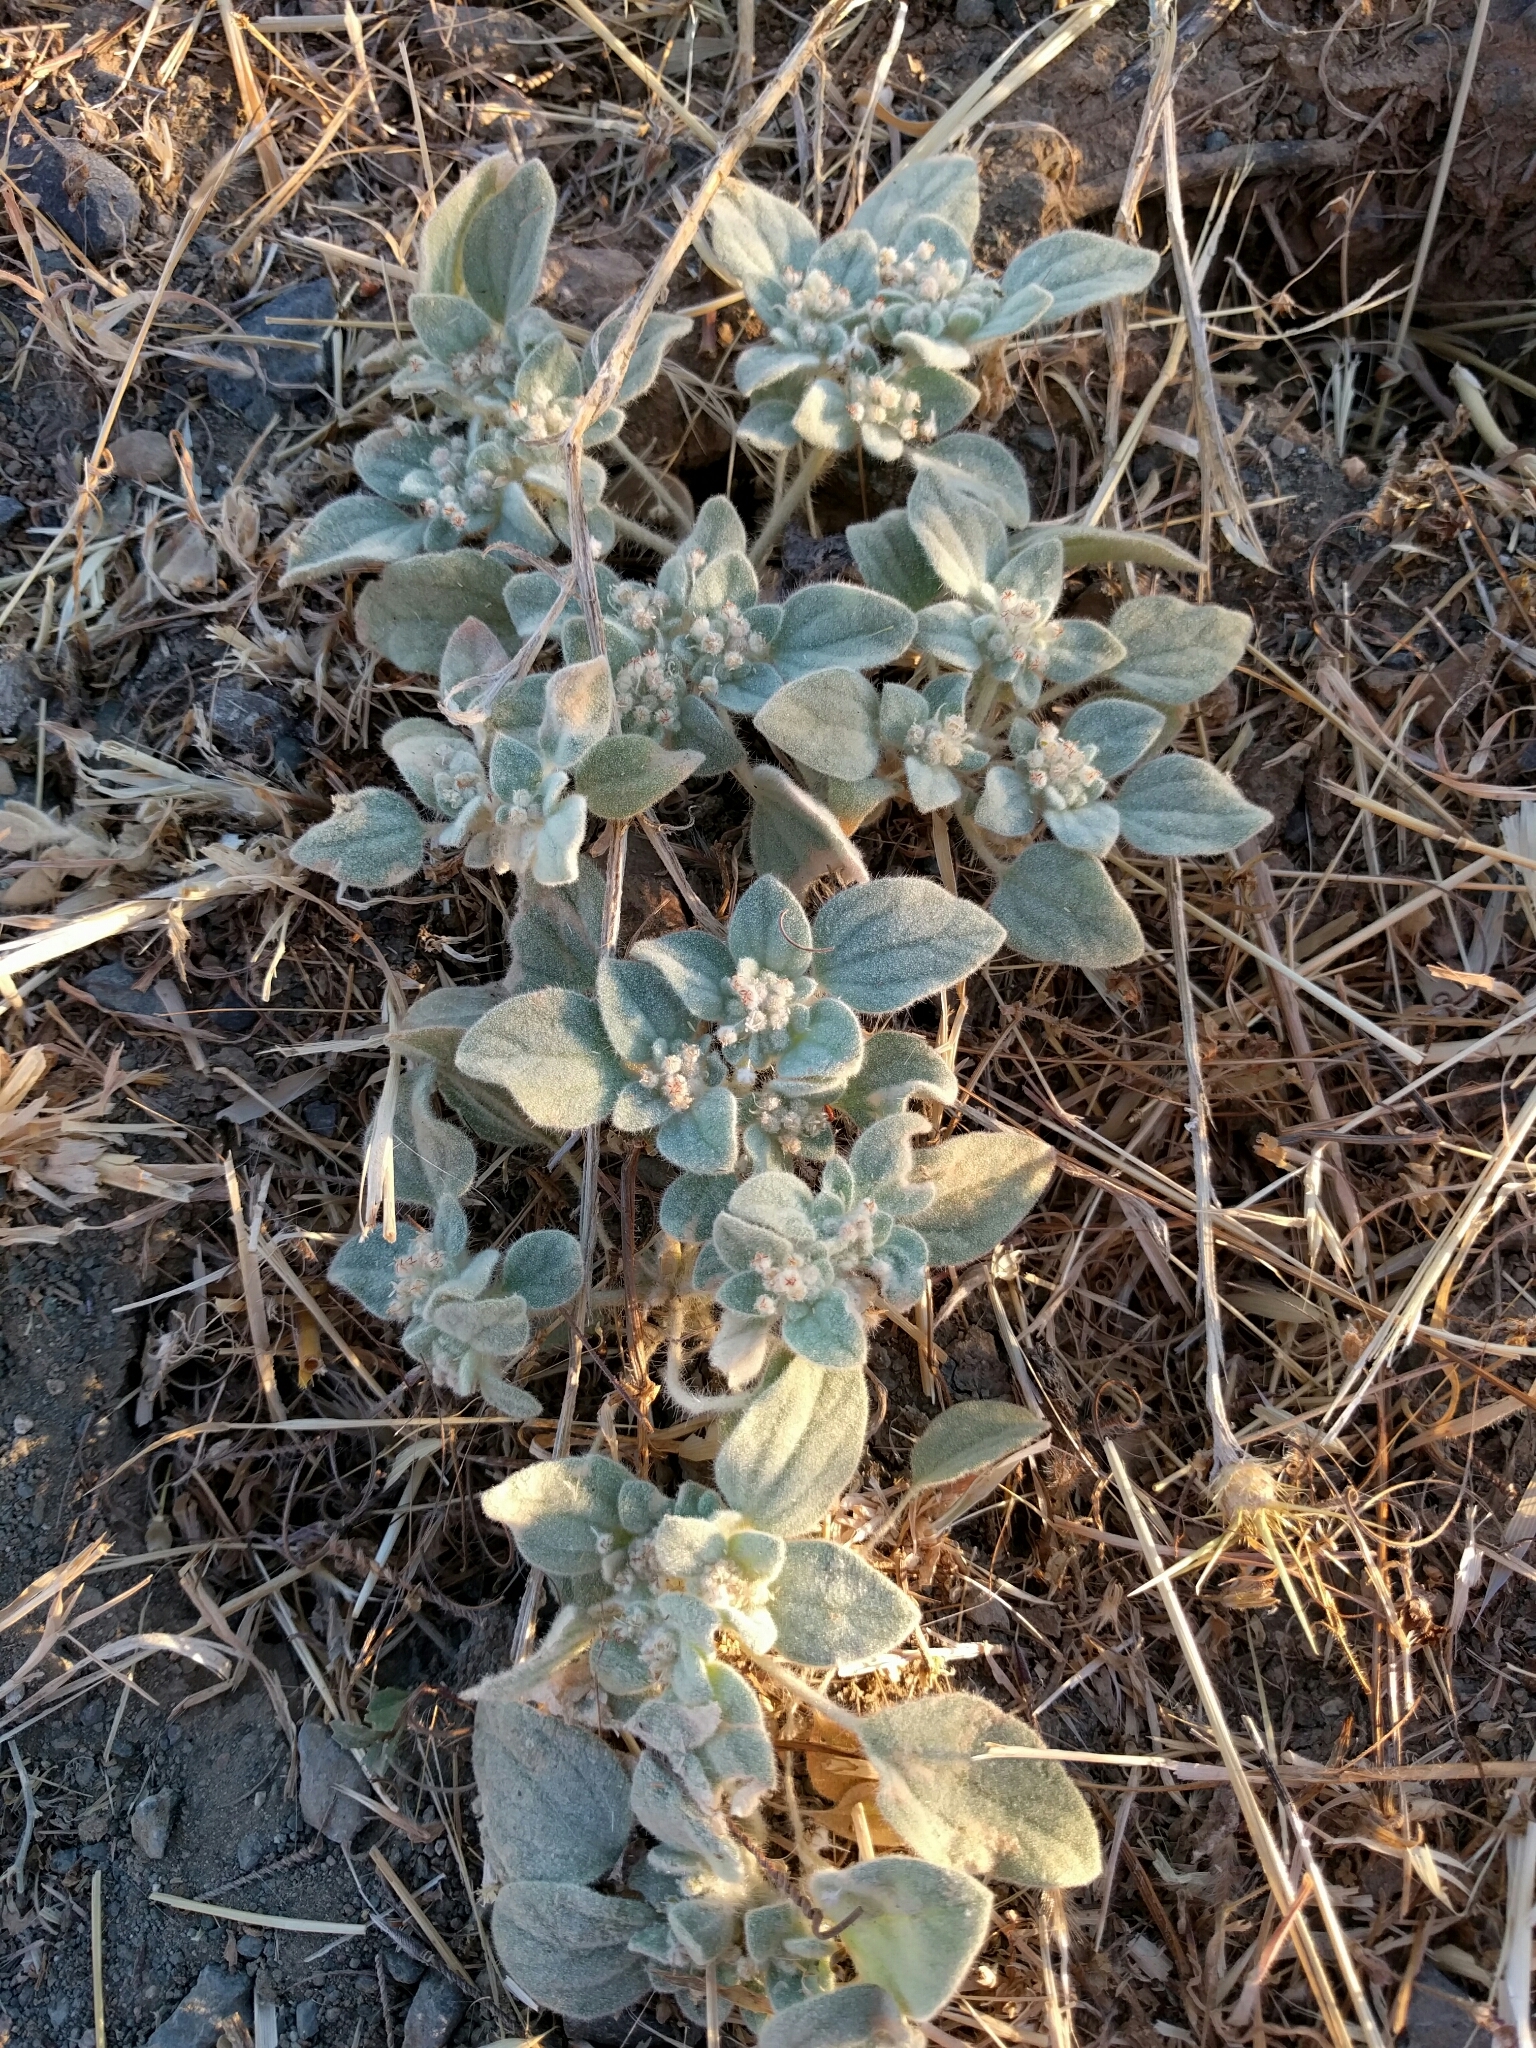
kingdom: Plantae
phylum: Tracheophyta
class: Magnoliopsida
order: Malpighiales
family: Euphorbiaceae
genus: Croton
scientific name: Croton setiger
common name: Dove weed
